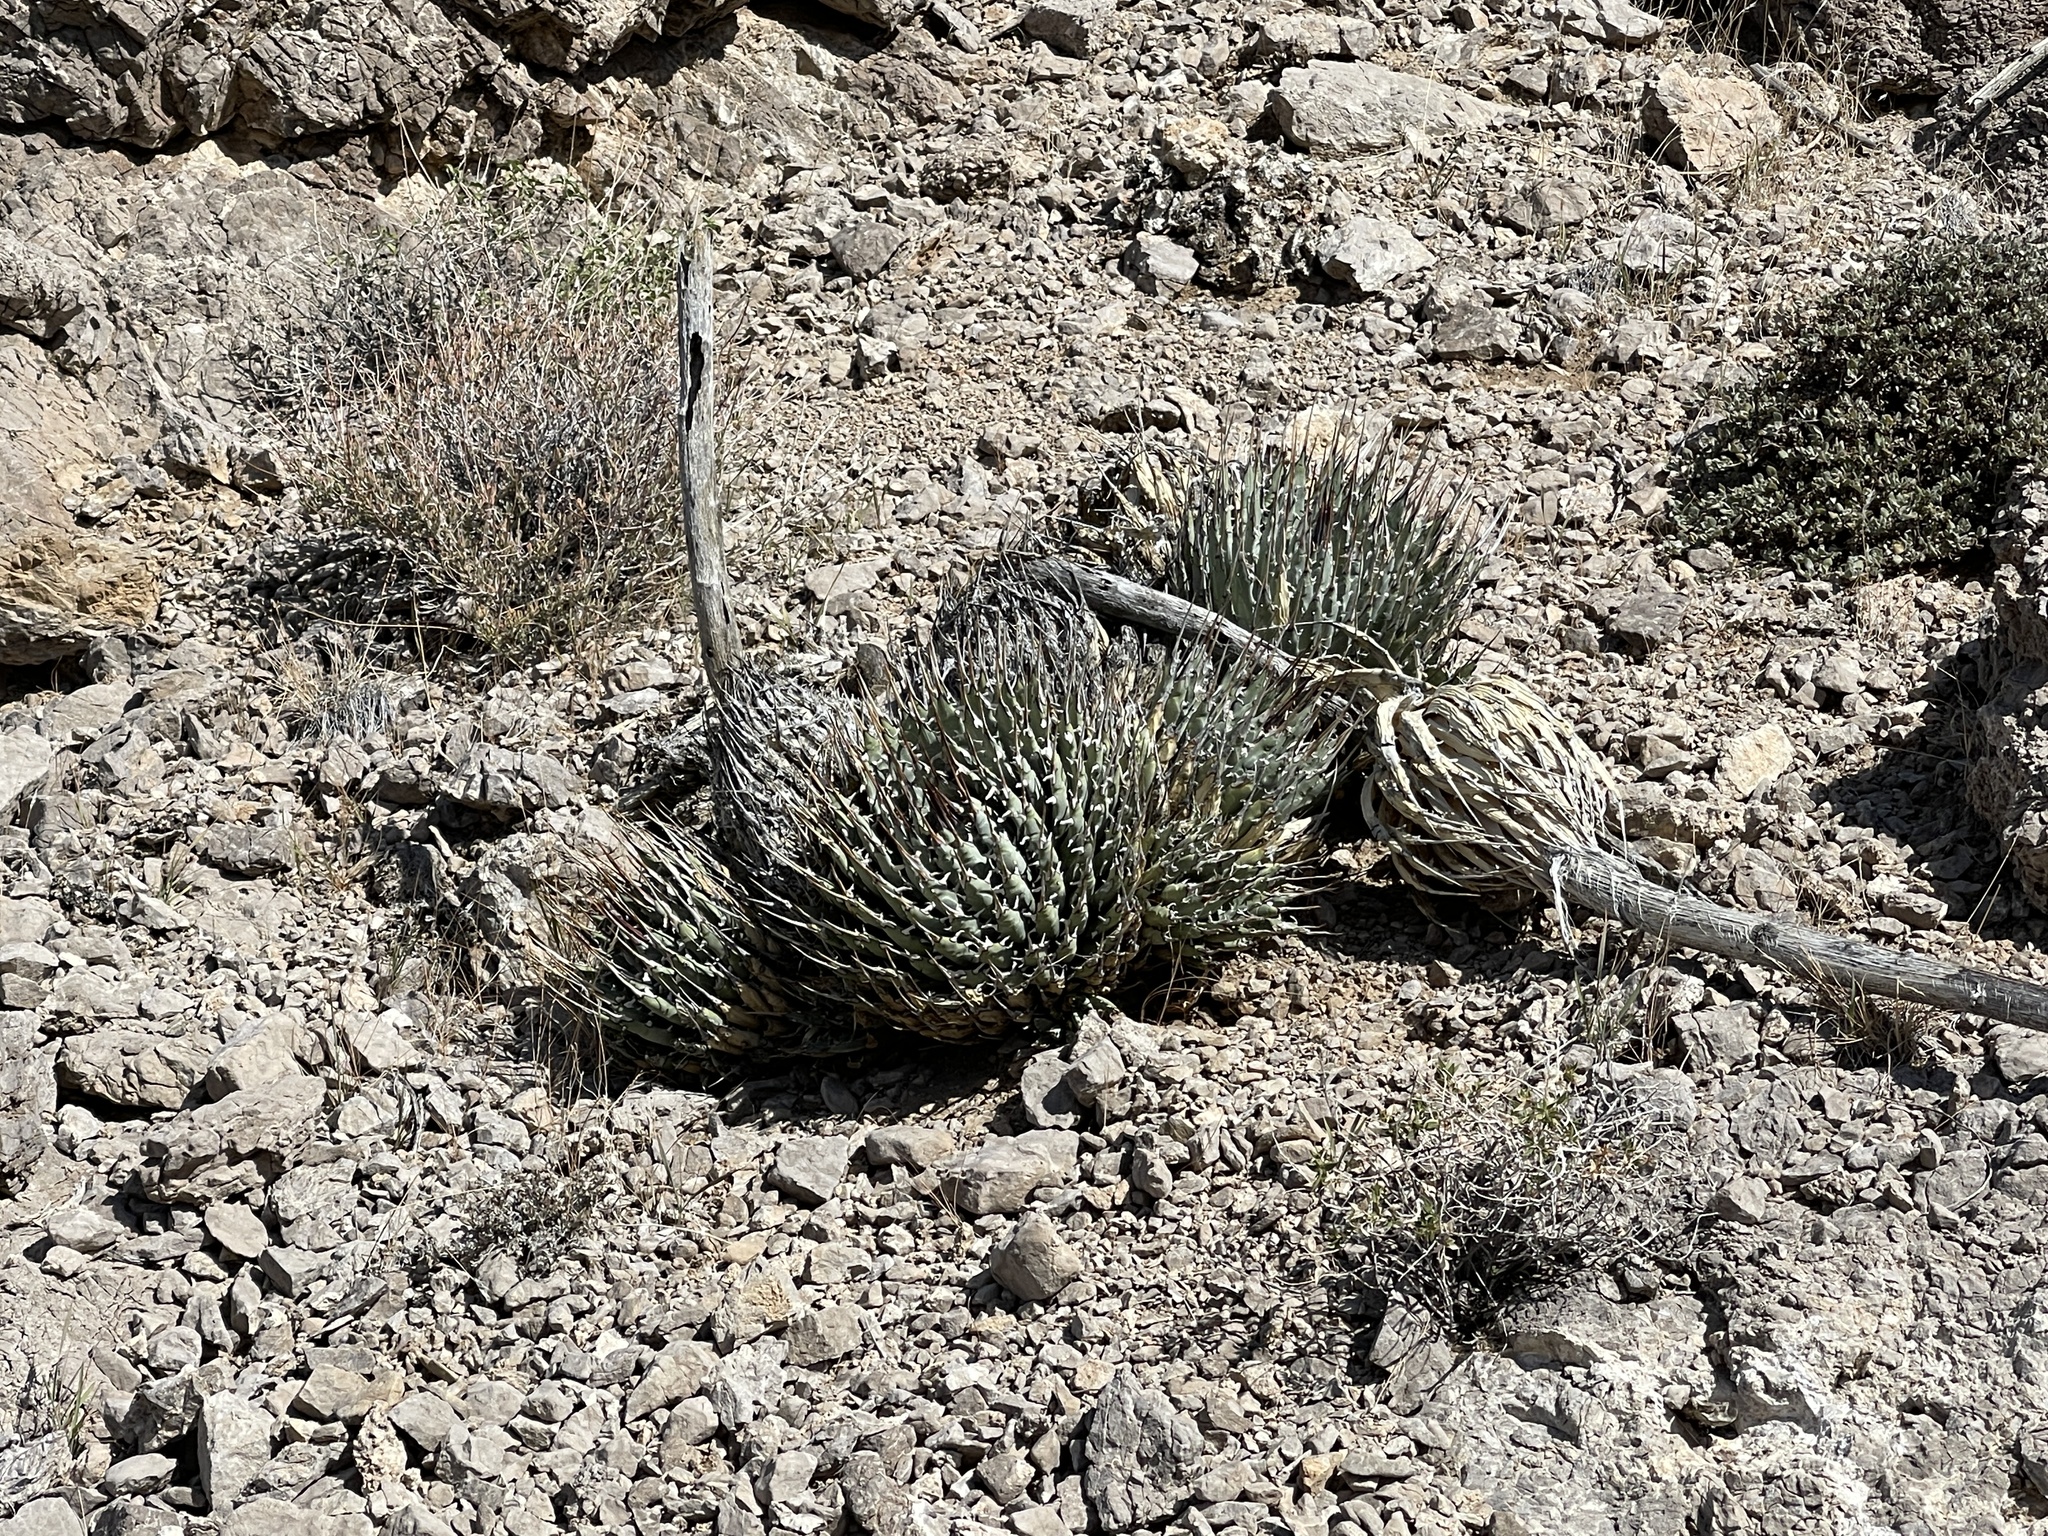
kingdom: Plantae
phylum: Tracheophyta
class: Liliopsida
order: Asparagales
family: Asparagaceae
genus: Agave
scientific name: Agave utahensis
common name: Utah agave
